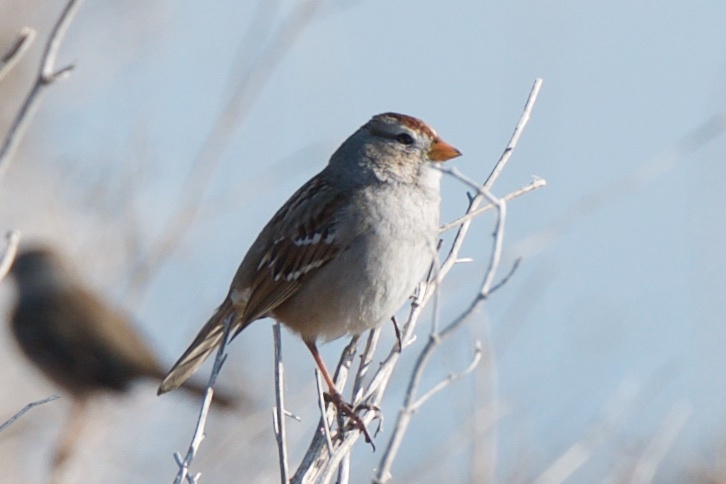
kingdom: Animalia
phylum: Chordata
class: Aves
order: Passeriformes
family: Passerellidae
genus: Zonotrichia
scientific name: Zonotrichia leucophrys
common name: White-crowned sparrow
